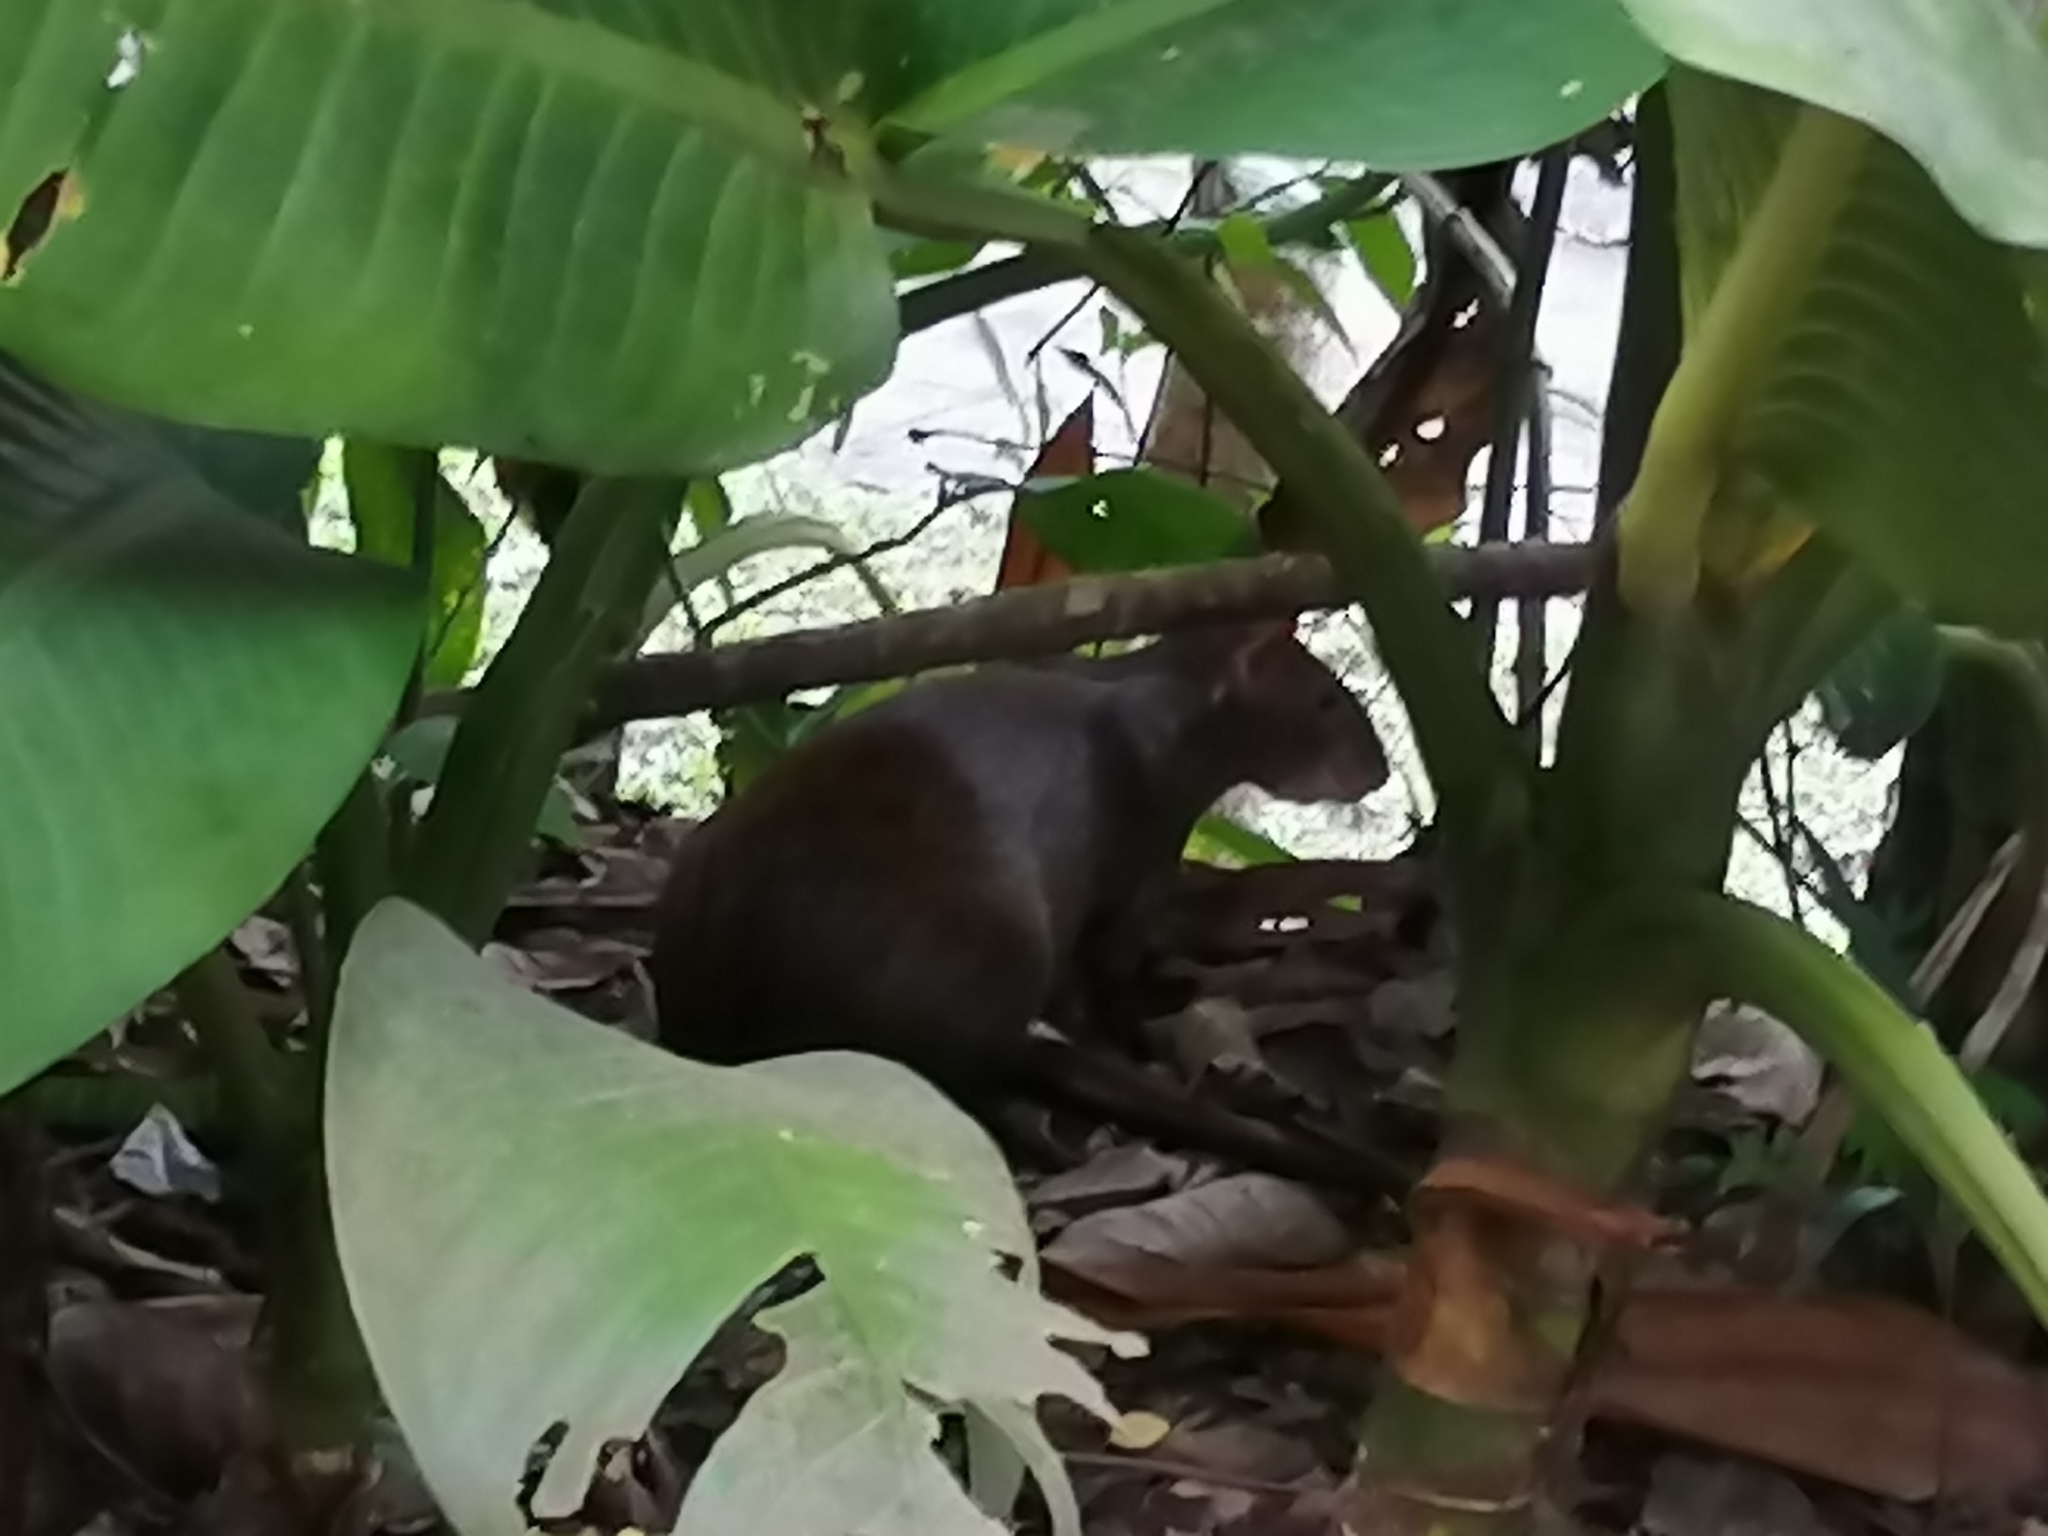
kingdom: Animalia
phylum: Chordata
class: Mammalia
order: Rodentia
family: Dasyproctidae
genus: Dasyprocta
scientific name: Dasyprocta punctata
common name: Central american agouti
